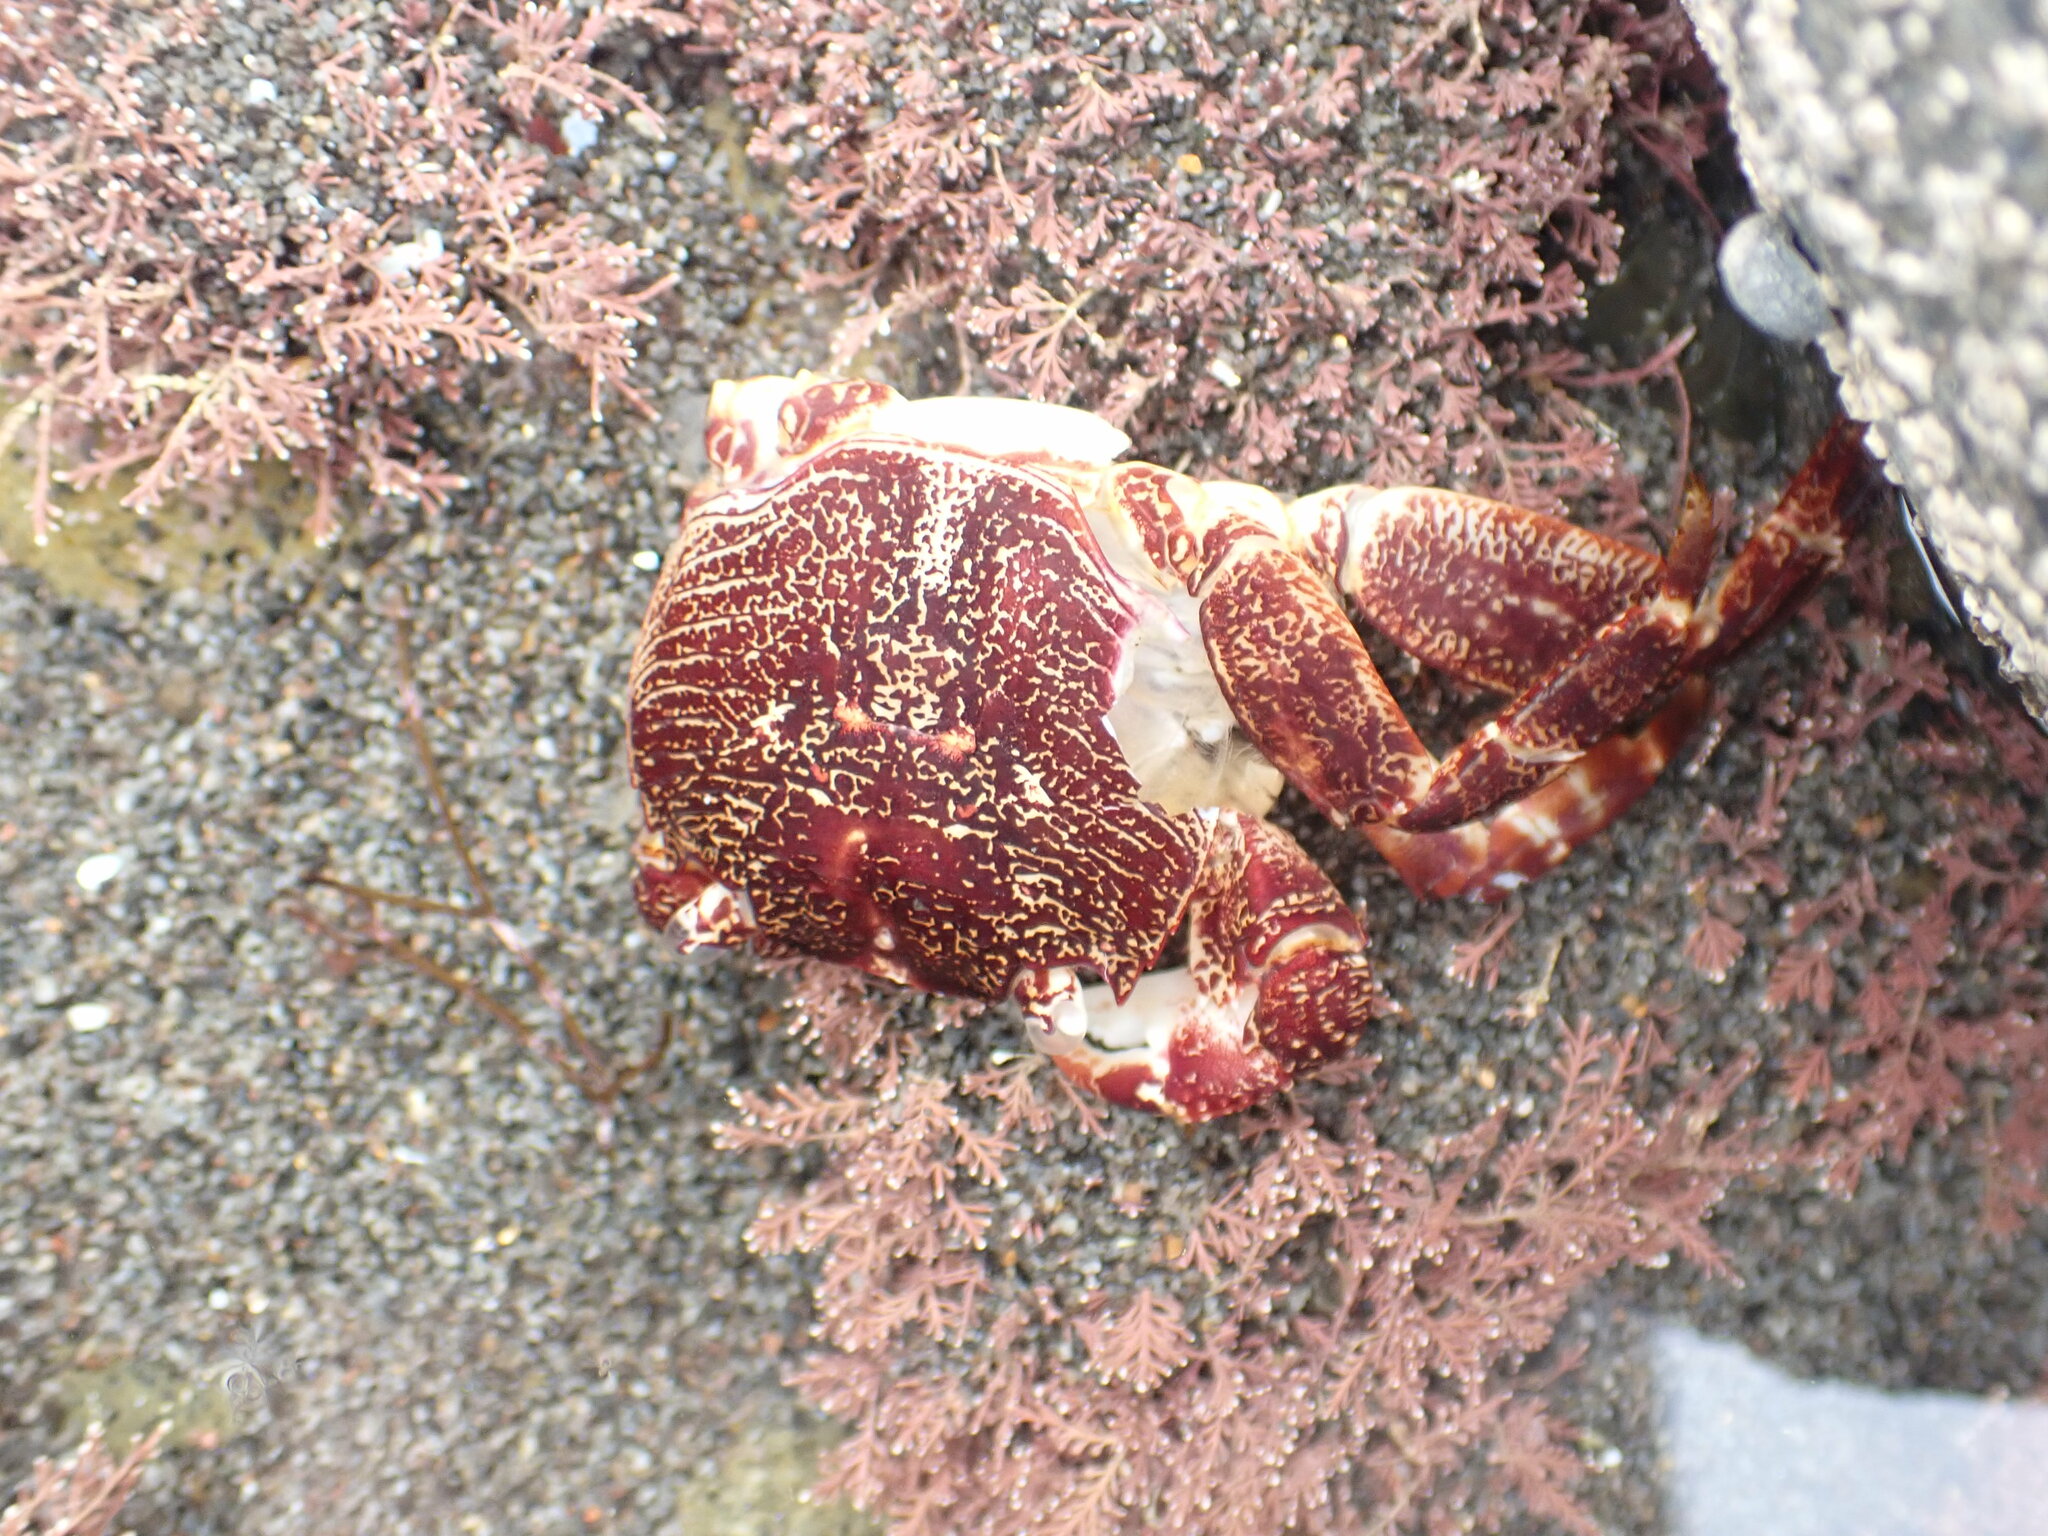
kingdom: Animalia
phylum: Arthropoda
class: Malacostraca
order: Decapoda
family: Grapsidae
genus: Leptograpsus
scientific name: Leptograpsus variegatus
